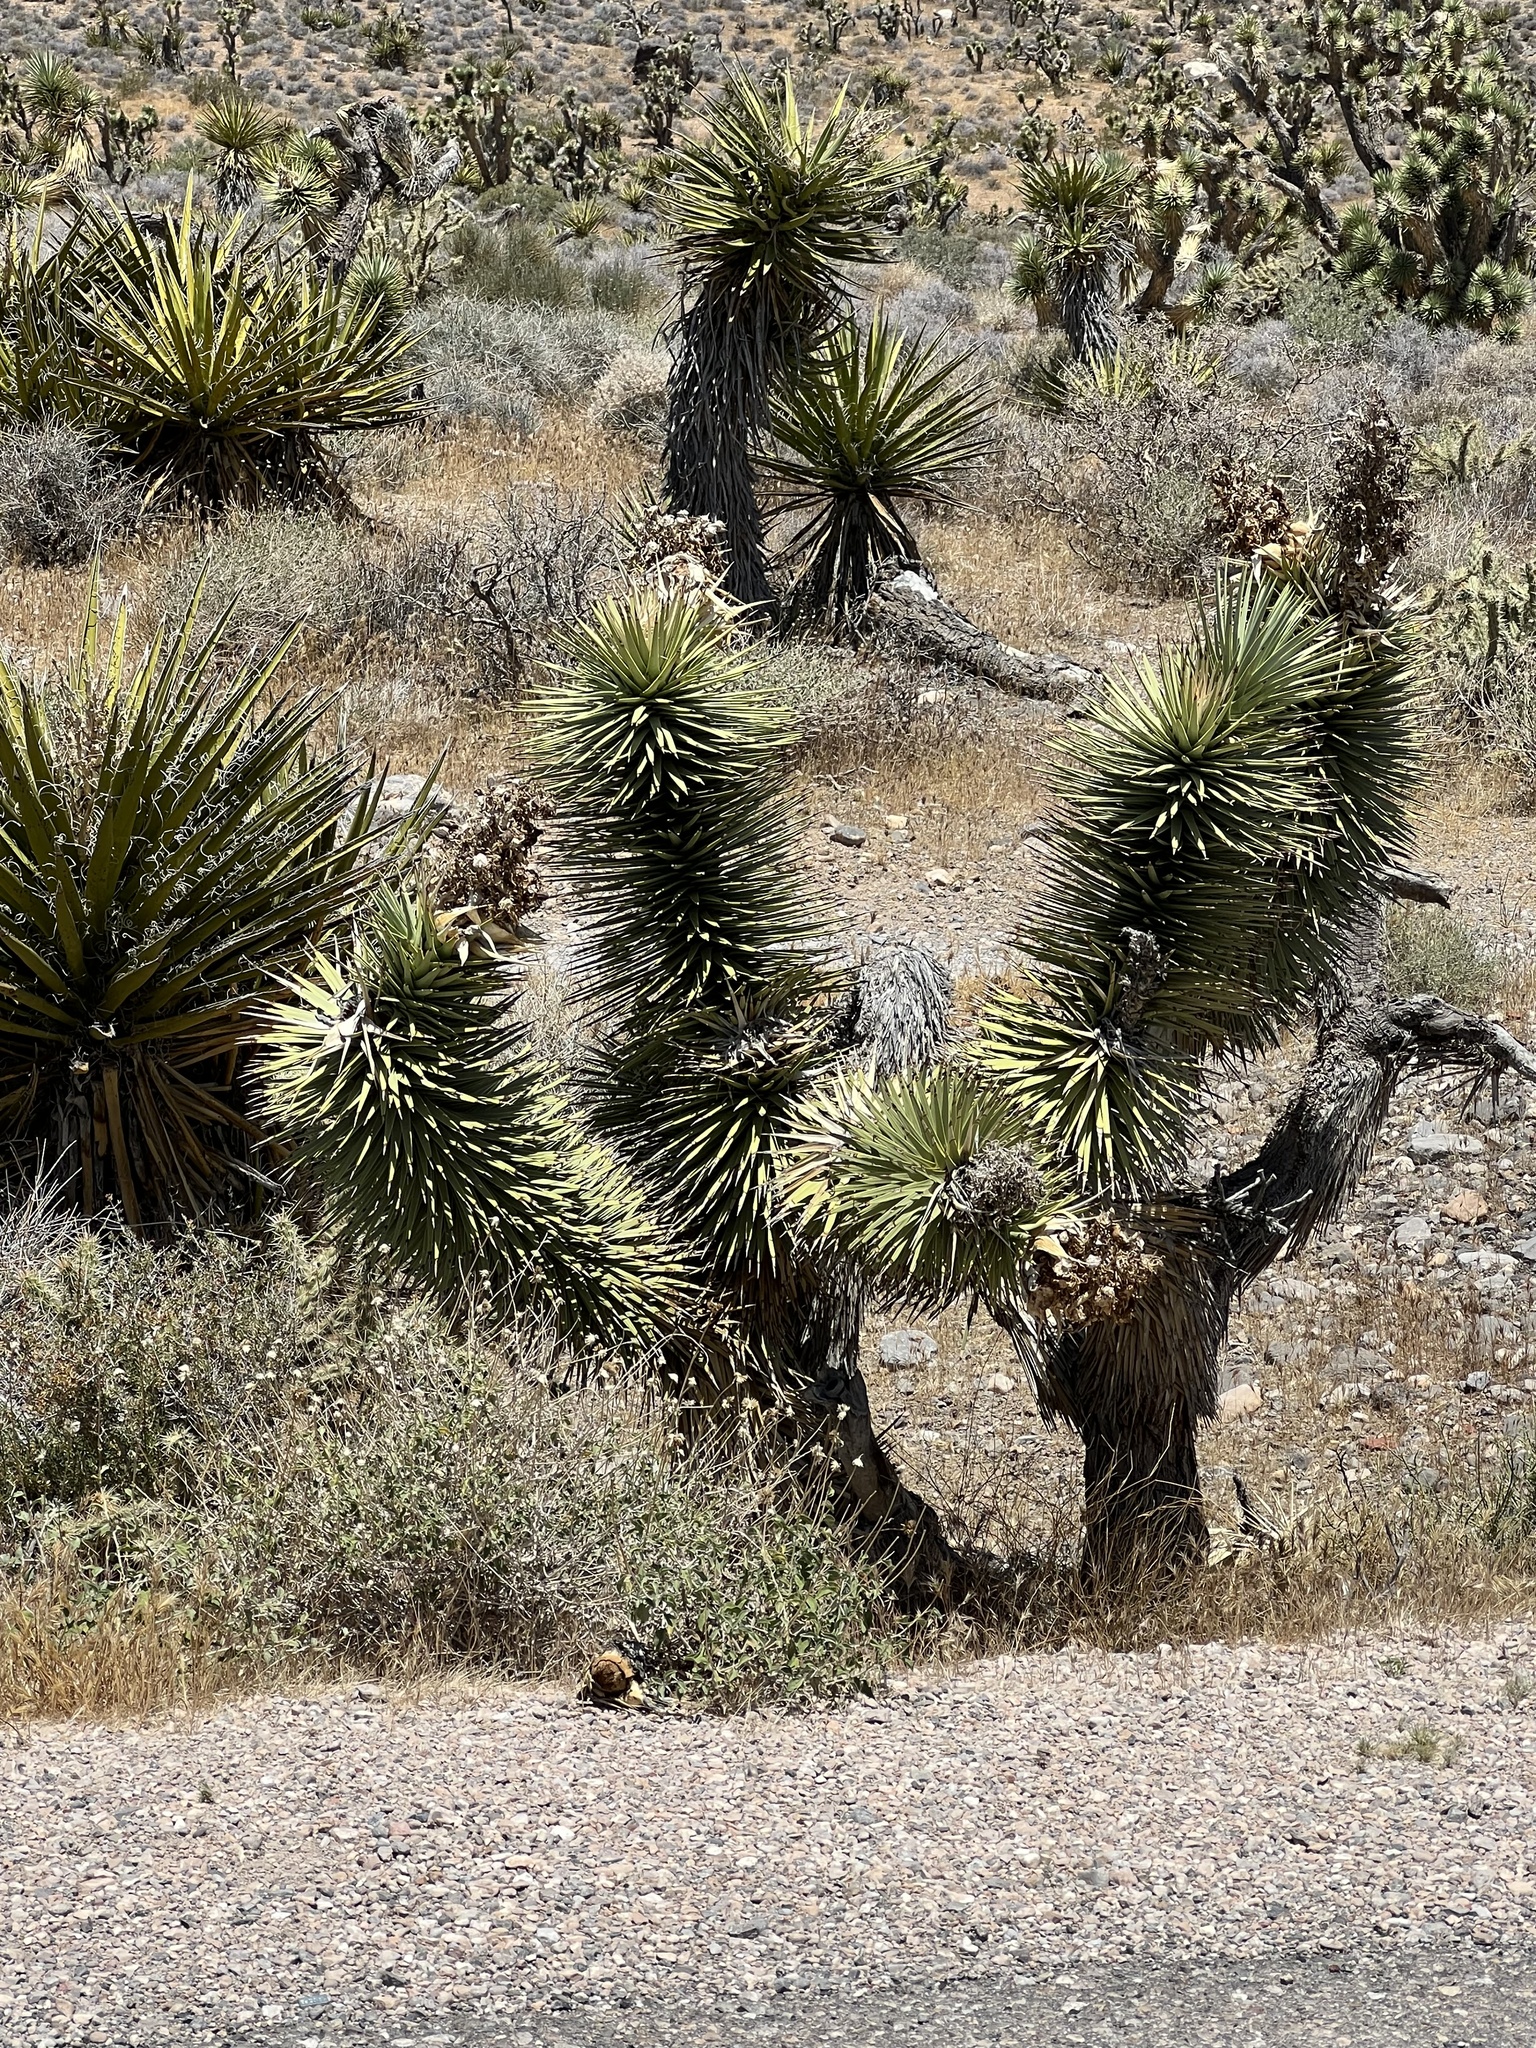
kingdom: Plantae
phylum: Tracheophyta
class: Liliopsida
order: Asparagales
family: Asparagaceae
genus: Yucca
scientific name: Yucca brevifolia
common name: Joshua tree
